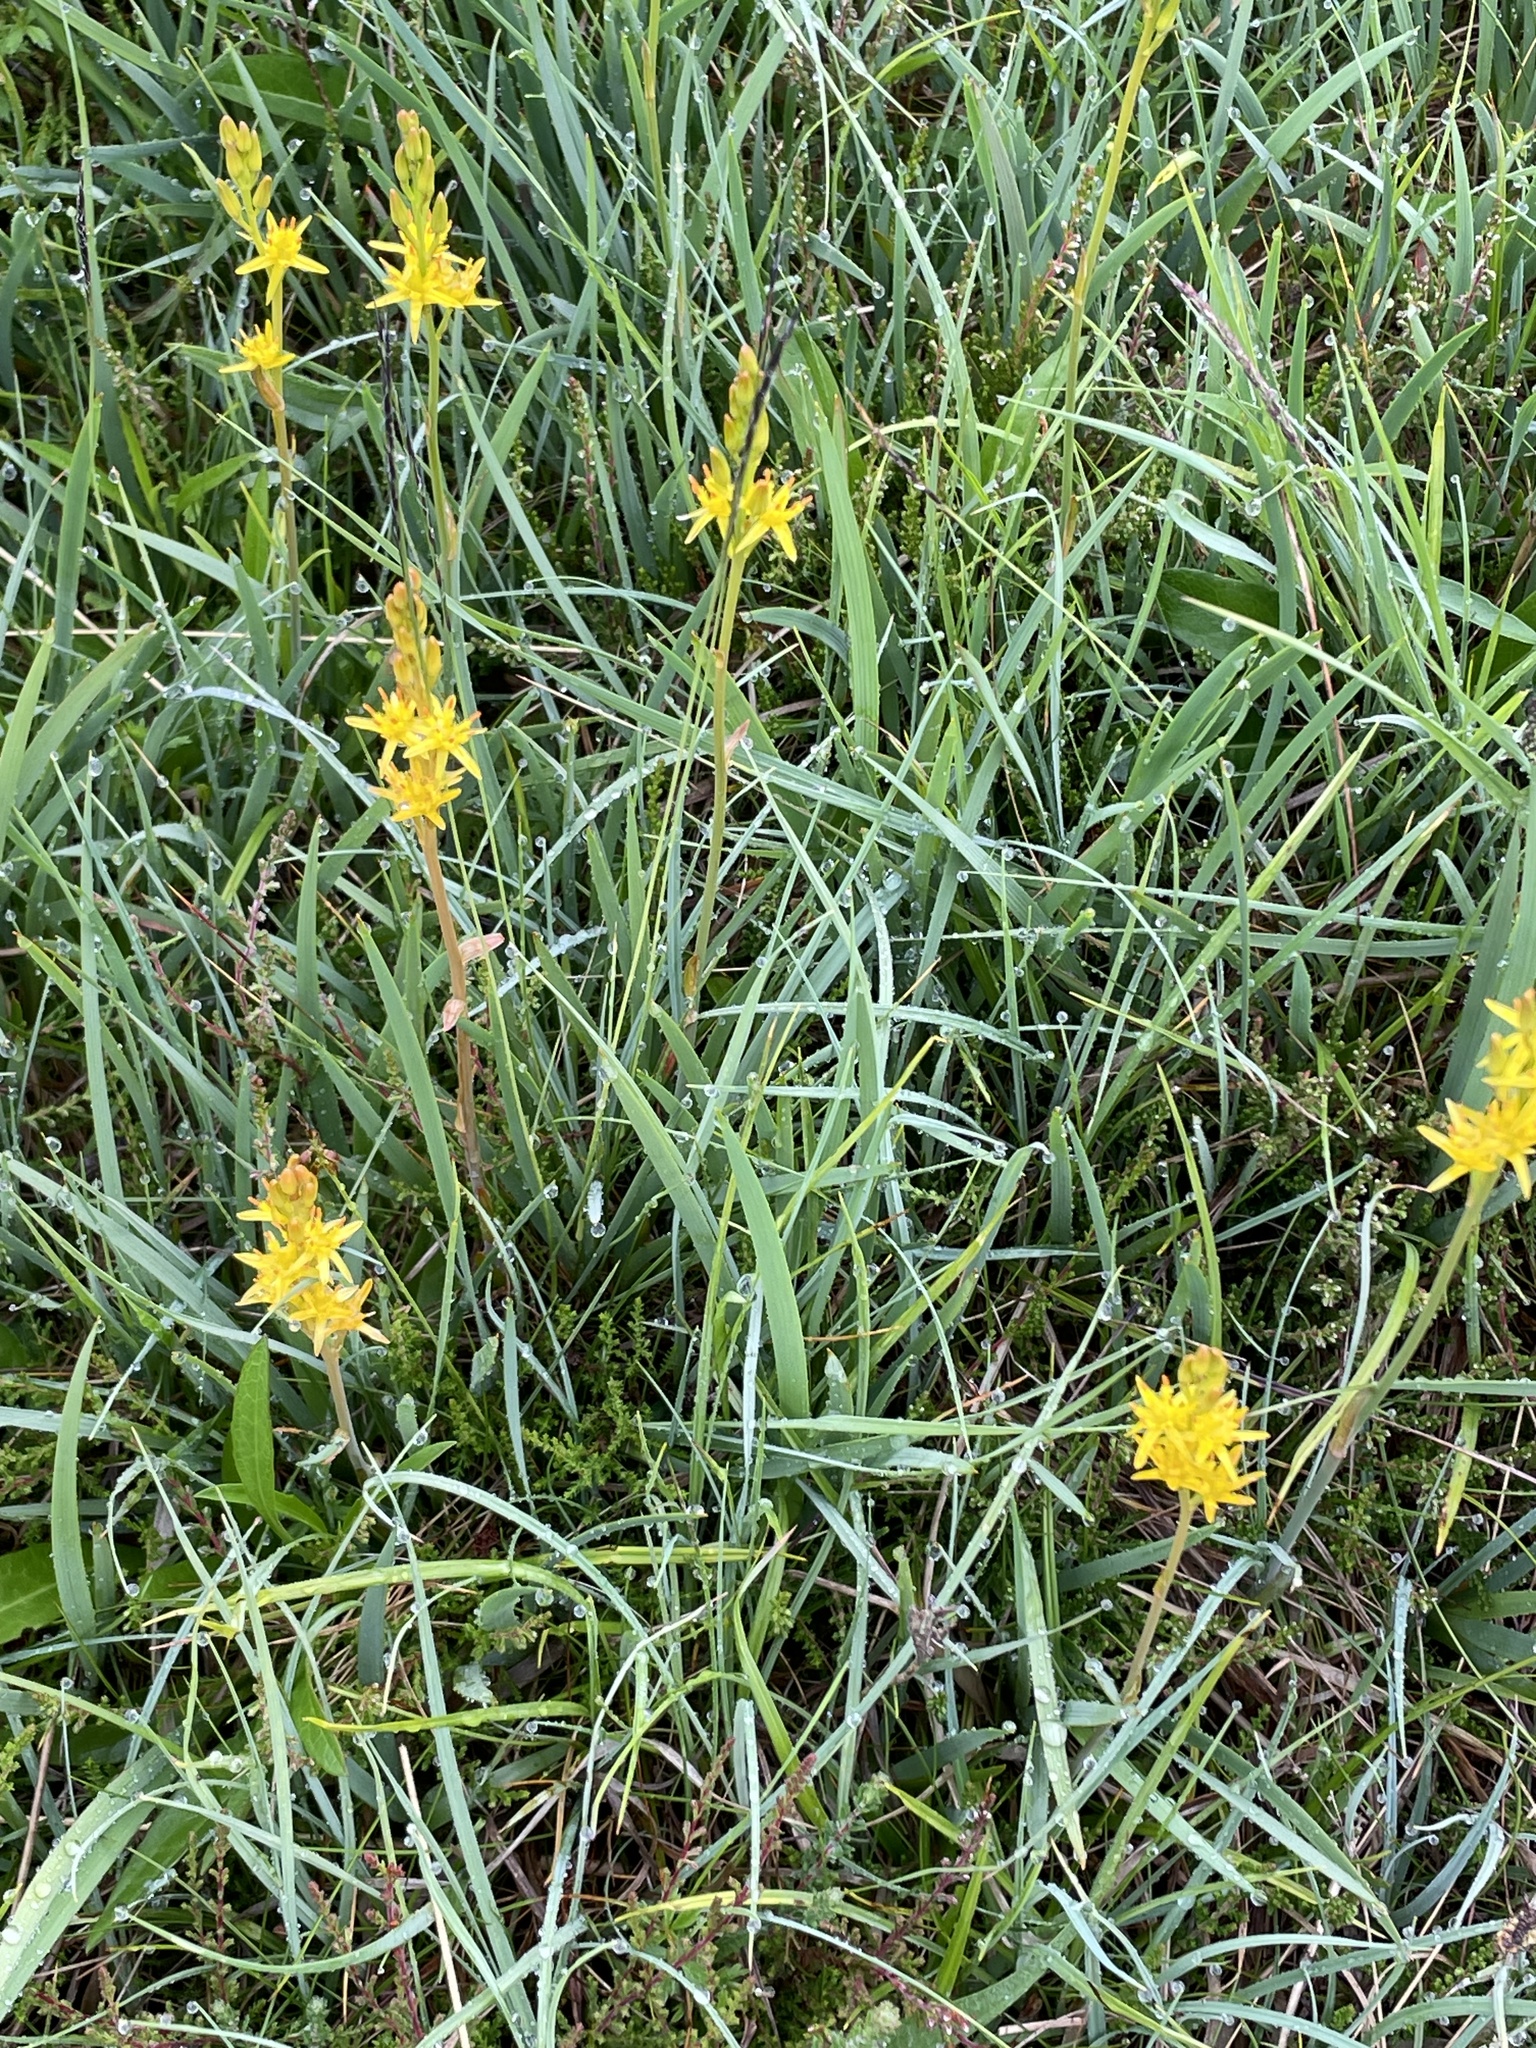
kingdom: Plantae
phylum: Tracheophyta
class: Liliopsida
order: Dioscoreales
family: Nartheciaceae
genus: Narthecium
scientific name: Narthecium ossifragum
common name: Bog asphodel
